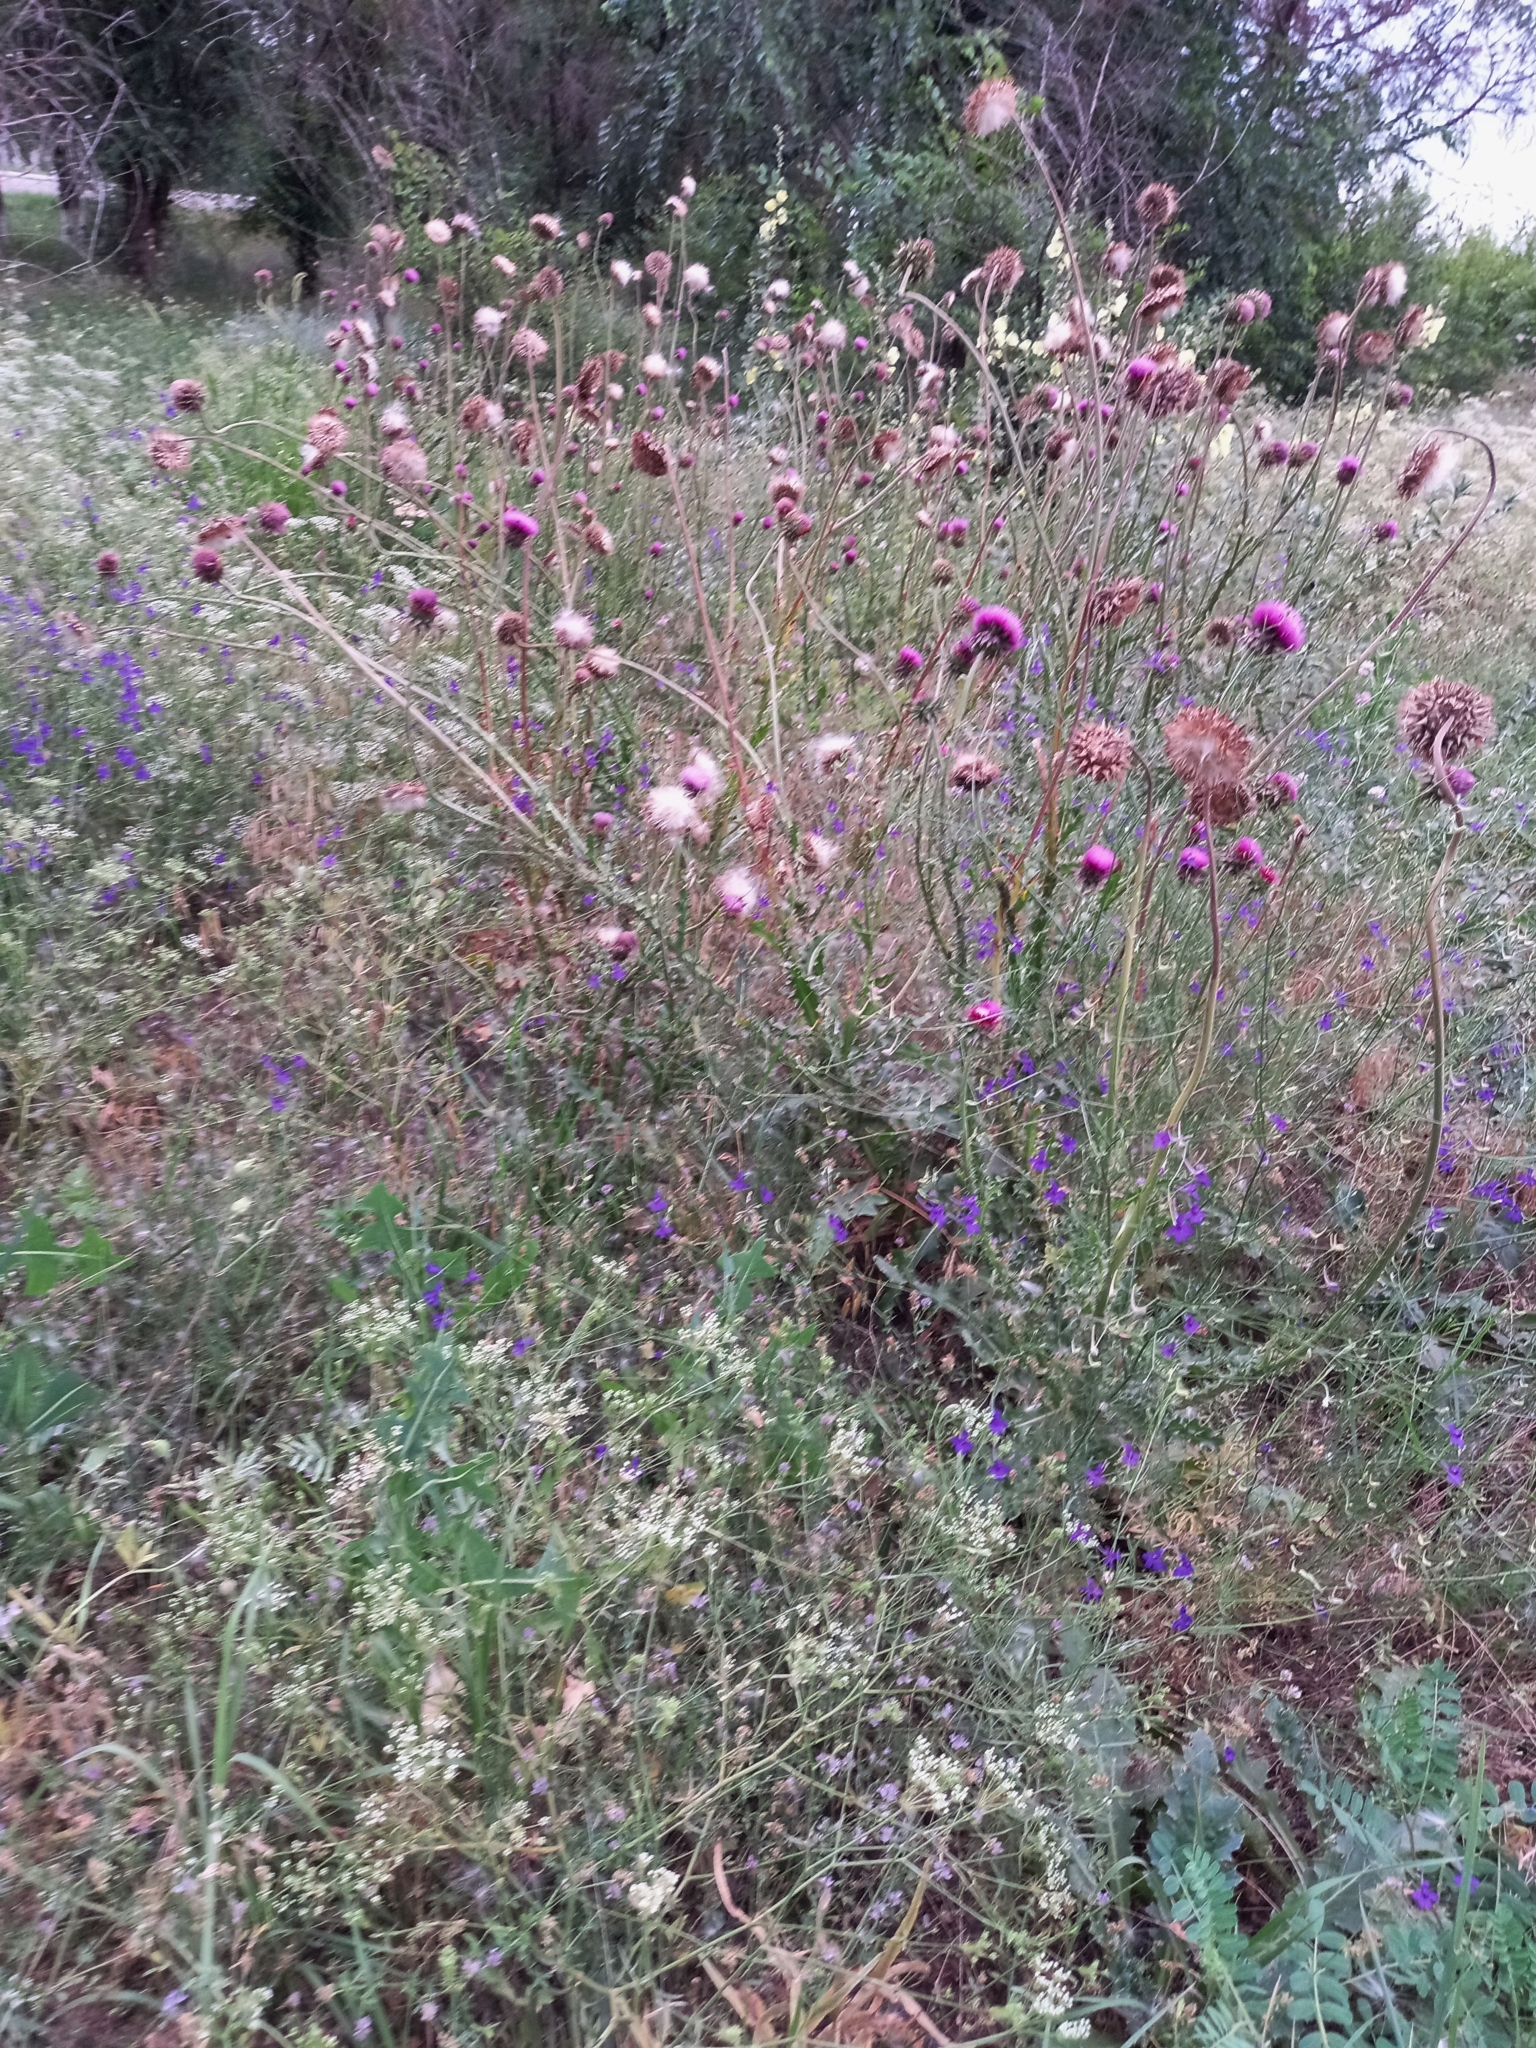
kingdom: Plantae
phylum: Tracheophyta
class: Magnoliopsida
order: Asterales
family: Asteraceae
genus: Carduus
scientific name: Carduus nutans
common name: Musk thistle
